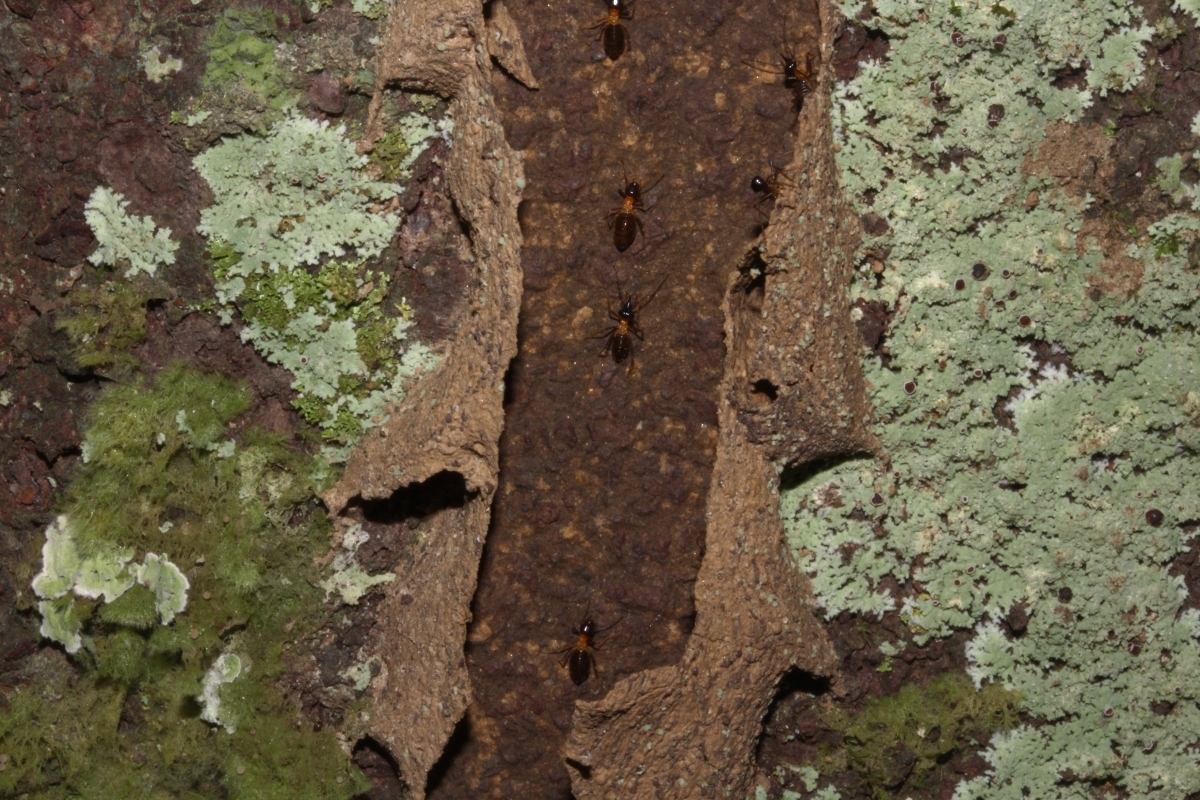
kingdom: Animalia
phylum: Arthropoda
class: Insecta
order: Blattodea
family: Termitidae
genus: Constrictotermes
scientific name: Constrictotermes cavifrons
